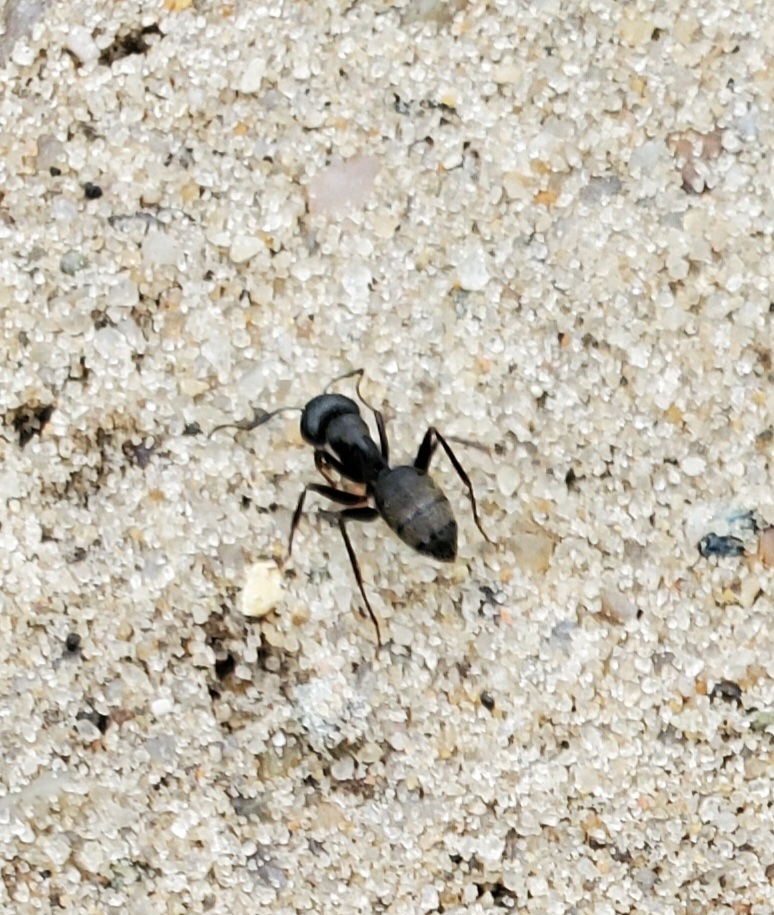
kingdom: Animalia
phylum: Arthropoda
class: Insecta
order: Hymenoptera
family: Formicidae
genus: Camponotus
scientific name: Camponotus pennsylvanicus
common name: Black carpenter ant
